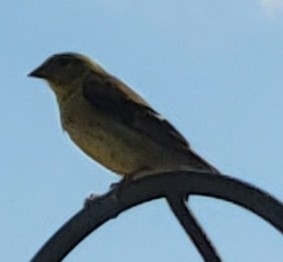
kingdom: Animalia
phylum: Chordata
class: Aves
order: Passeriformes
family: Fringillidae
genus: Spinus
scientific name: Spinus tristis
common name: American goldfinch
